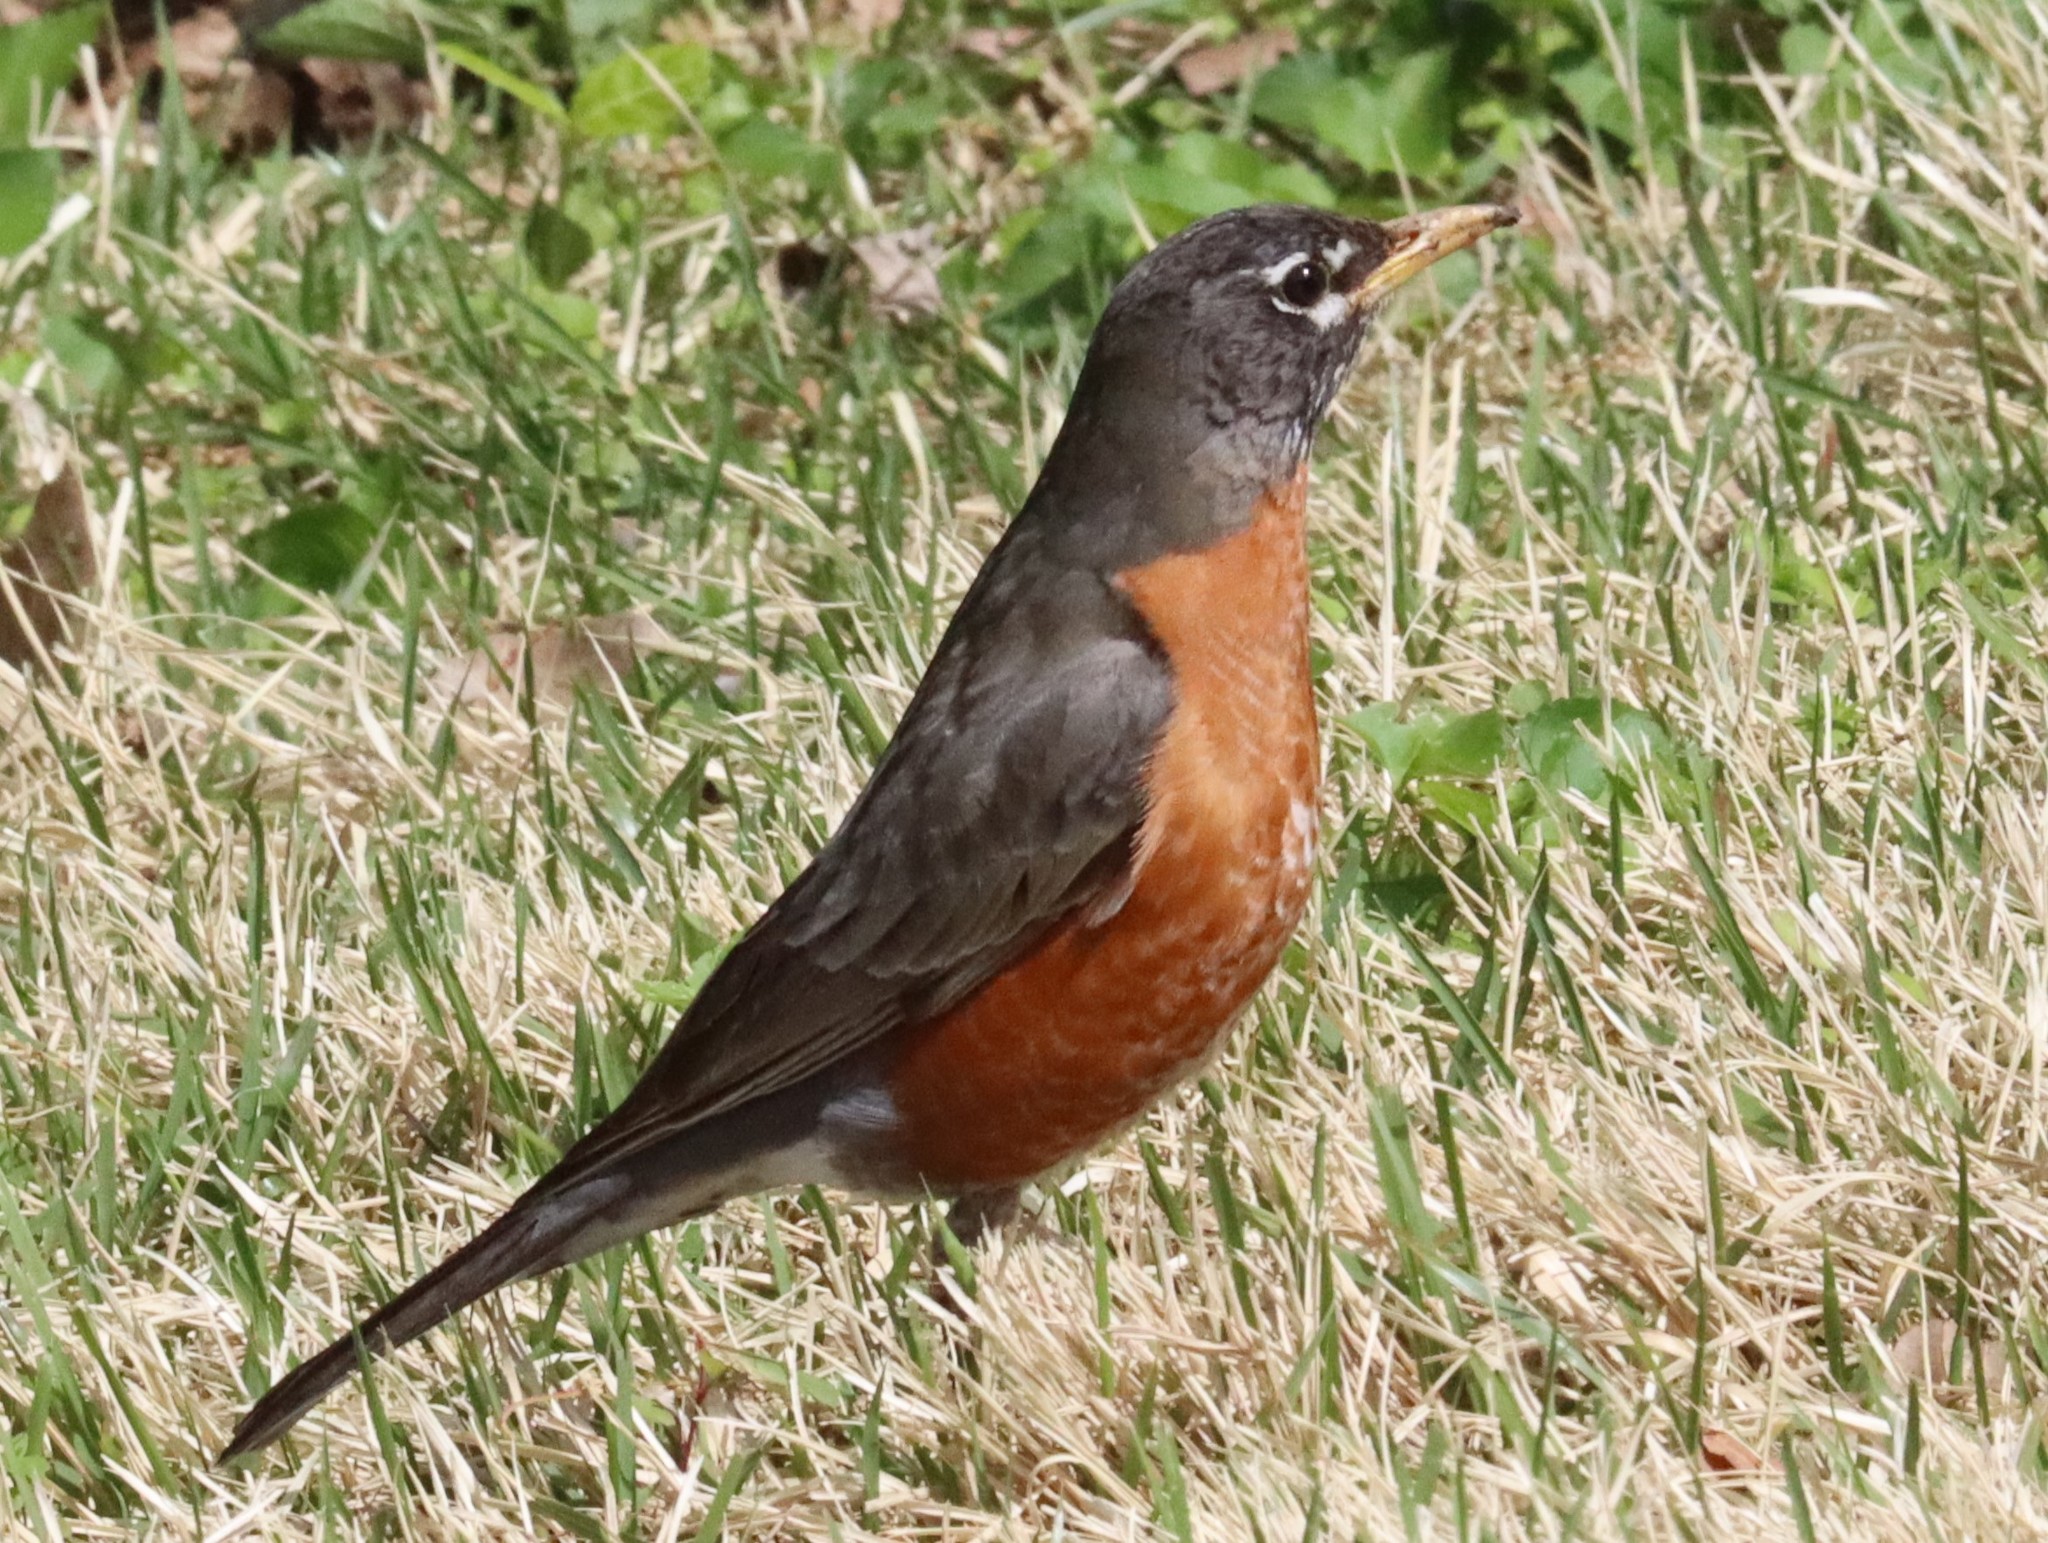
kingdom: Animalia
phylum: Chordata
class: Aves
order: Passeriformes
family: Turdidae
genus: Turdus
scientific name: Turdus migratorius
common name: American robin
